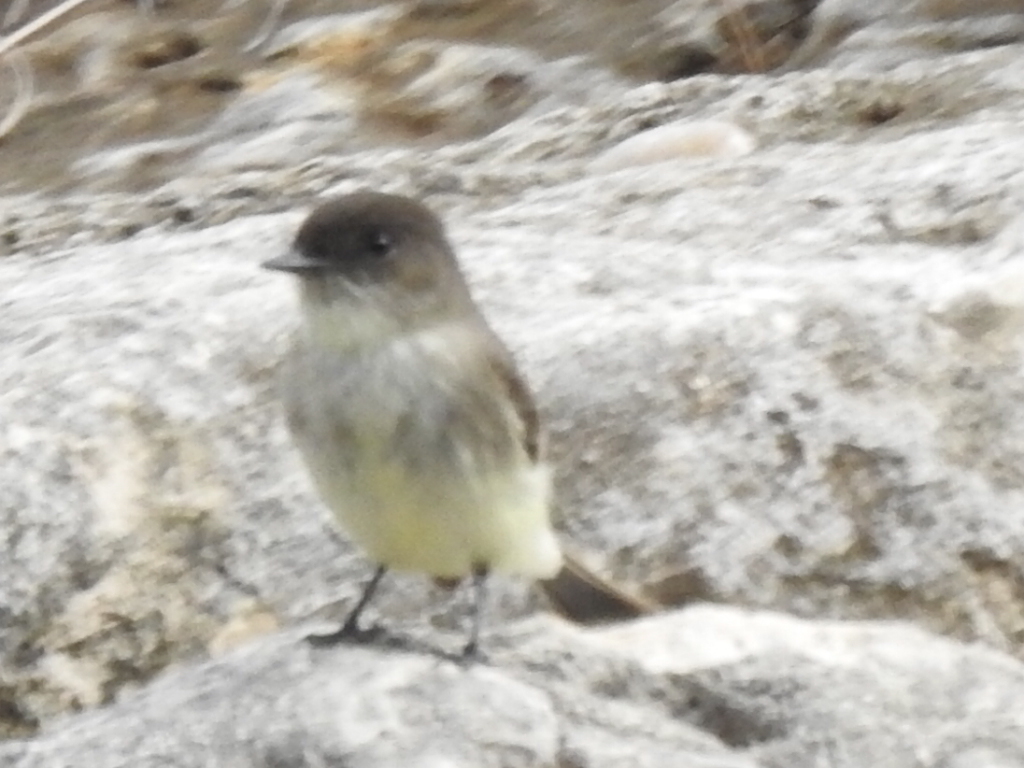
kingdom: Animalia
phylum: Chordata
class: Aves
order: Passeriformes
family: Tyrannidae
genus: Sayornis
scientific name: Sayornis phoebe
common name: Eastern phoebe
